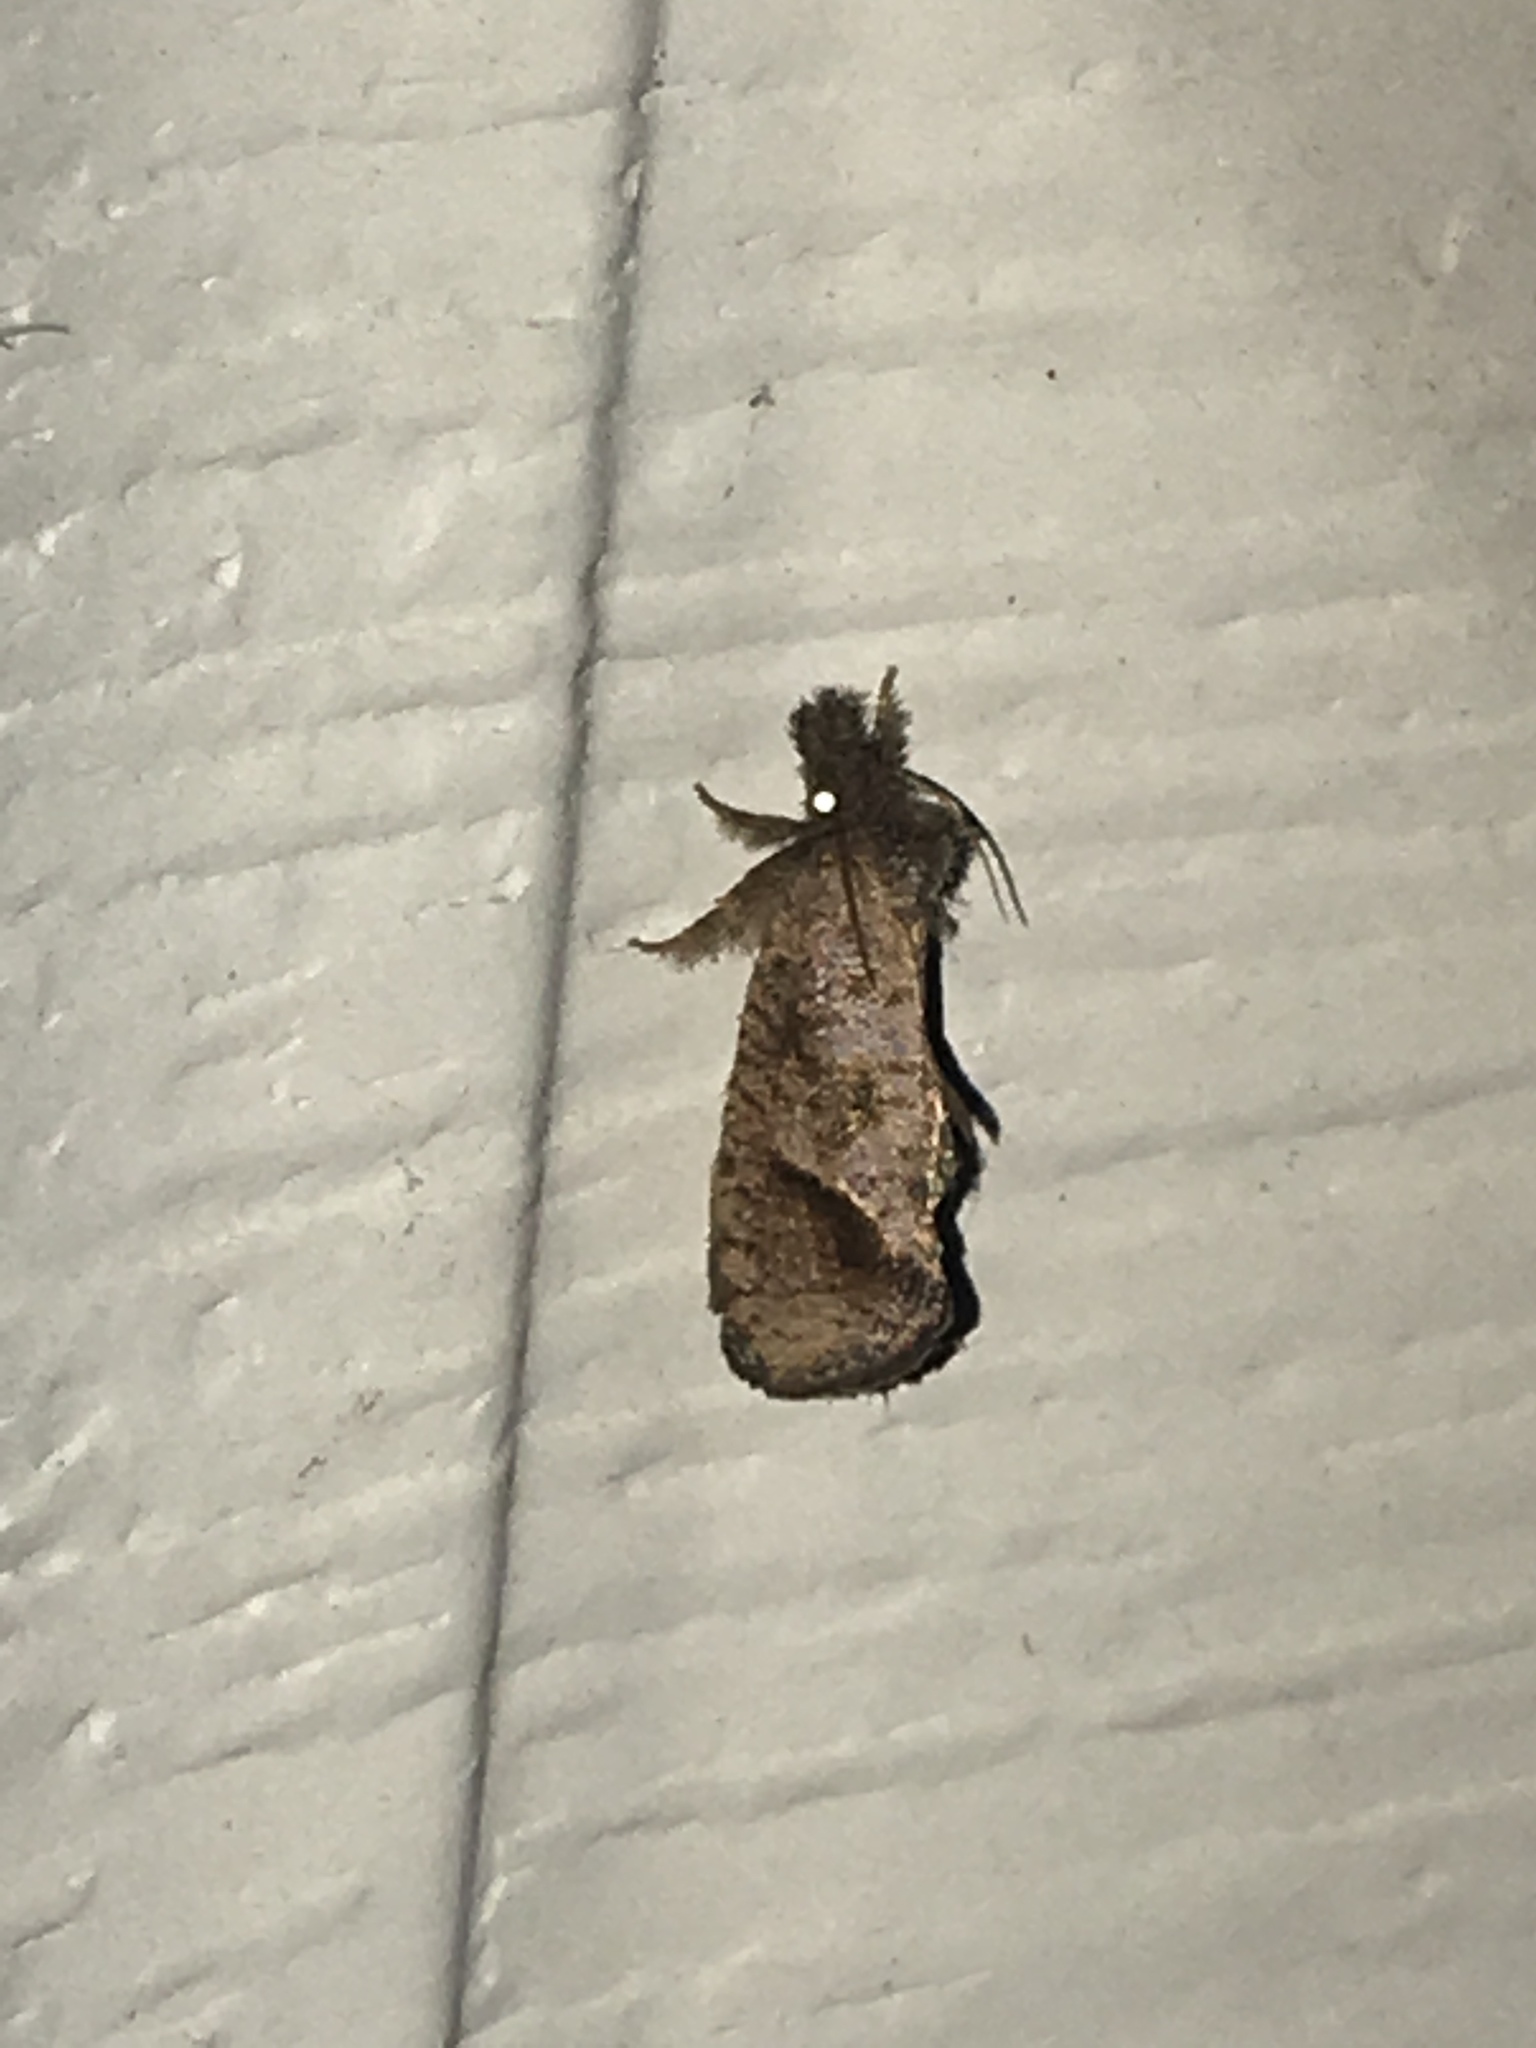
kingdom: Animalia
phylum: Arthropoda
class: Insecta
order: Lepidoptera
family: Tineidae
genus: Acrolophus
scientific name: Acrolophus texanella
